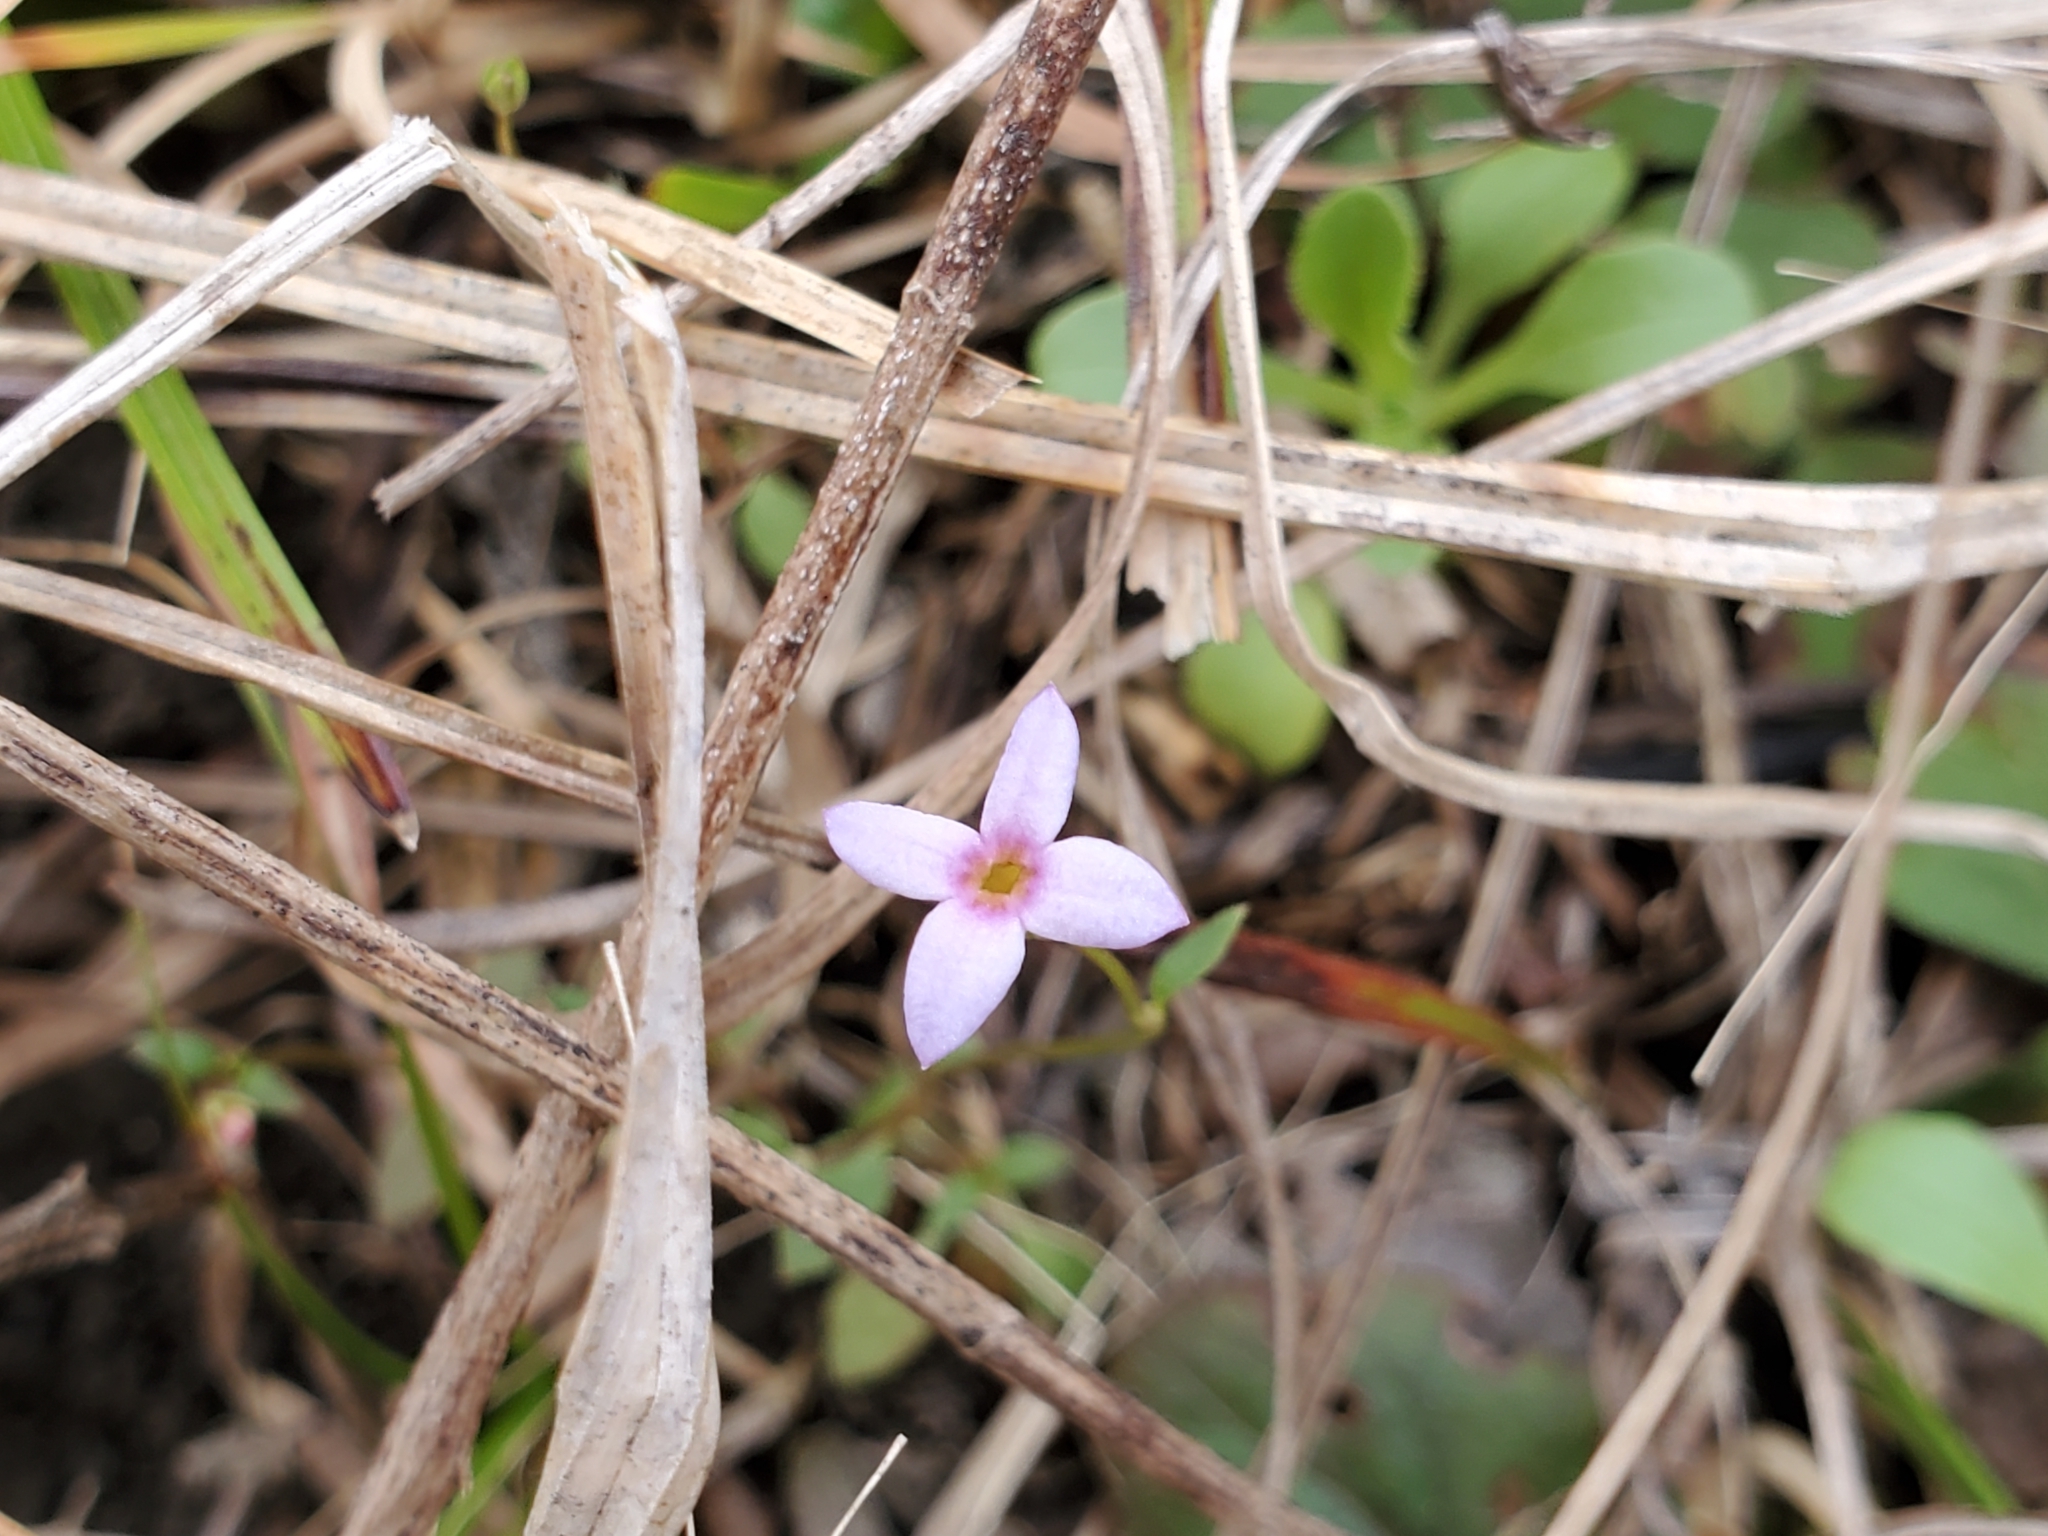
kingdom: Plantae
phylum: Tracheophyta
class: Magnoliopsida
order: Gentianales
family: Rubiaceae
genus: Houstonia
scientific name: Houstonia pusilla
